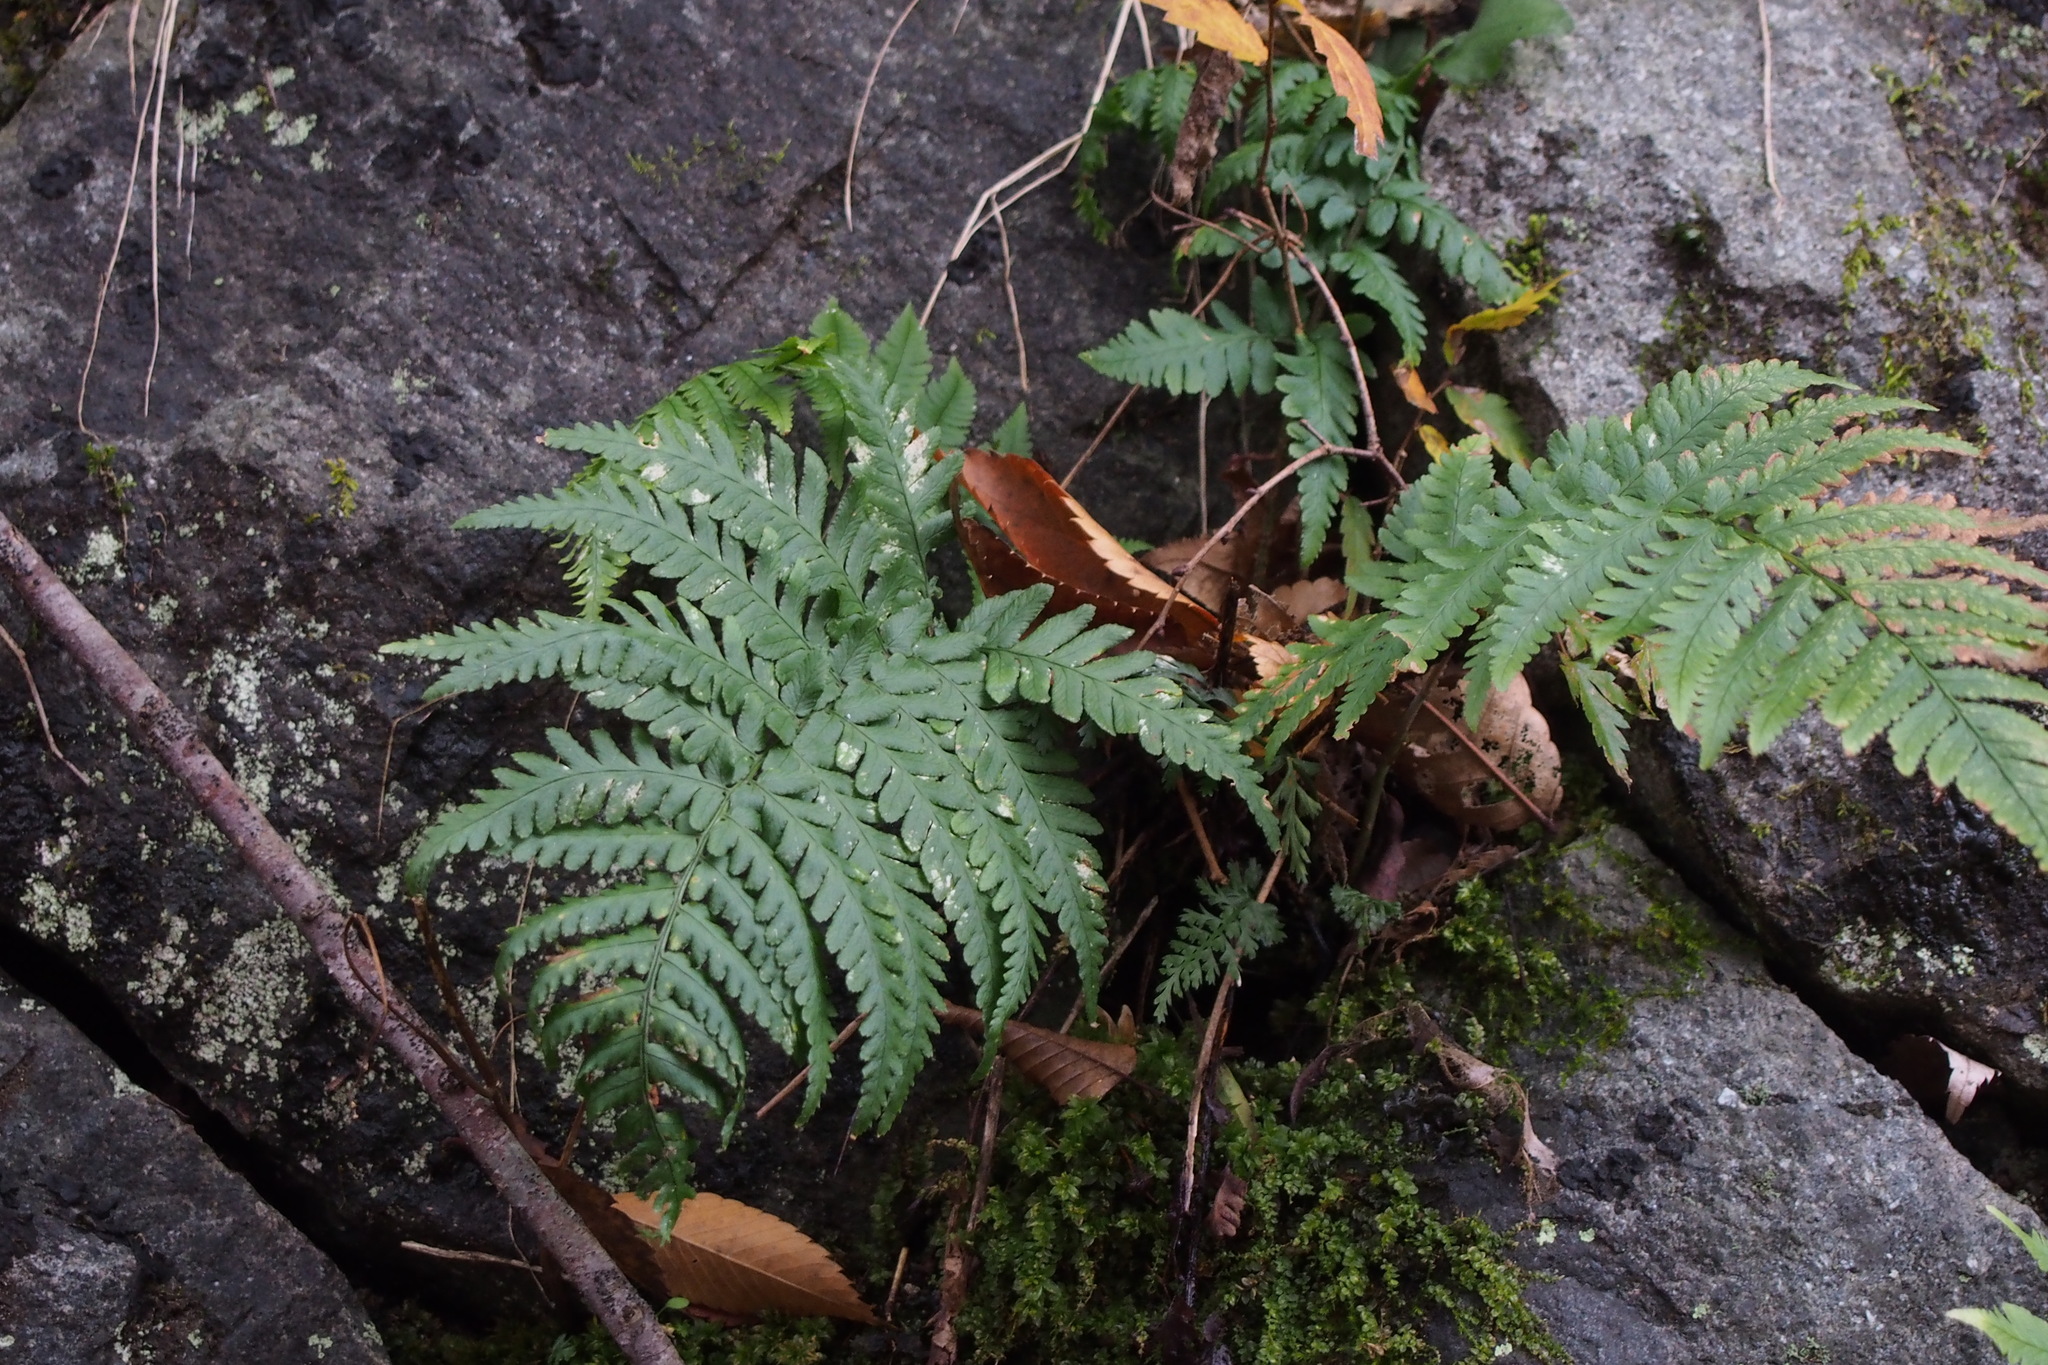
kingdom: Plantae
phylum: Tracheophyta
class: Polypodiopsida
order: Polypodiales
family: Dryopteridaceae
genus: Dryopteris
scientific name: Dryopteris erythrosora
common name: Autumn fern
